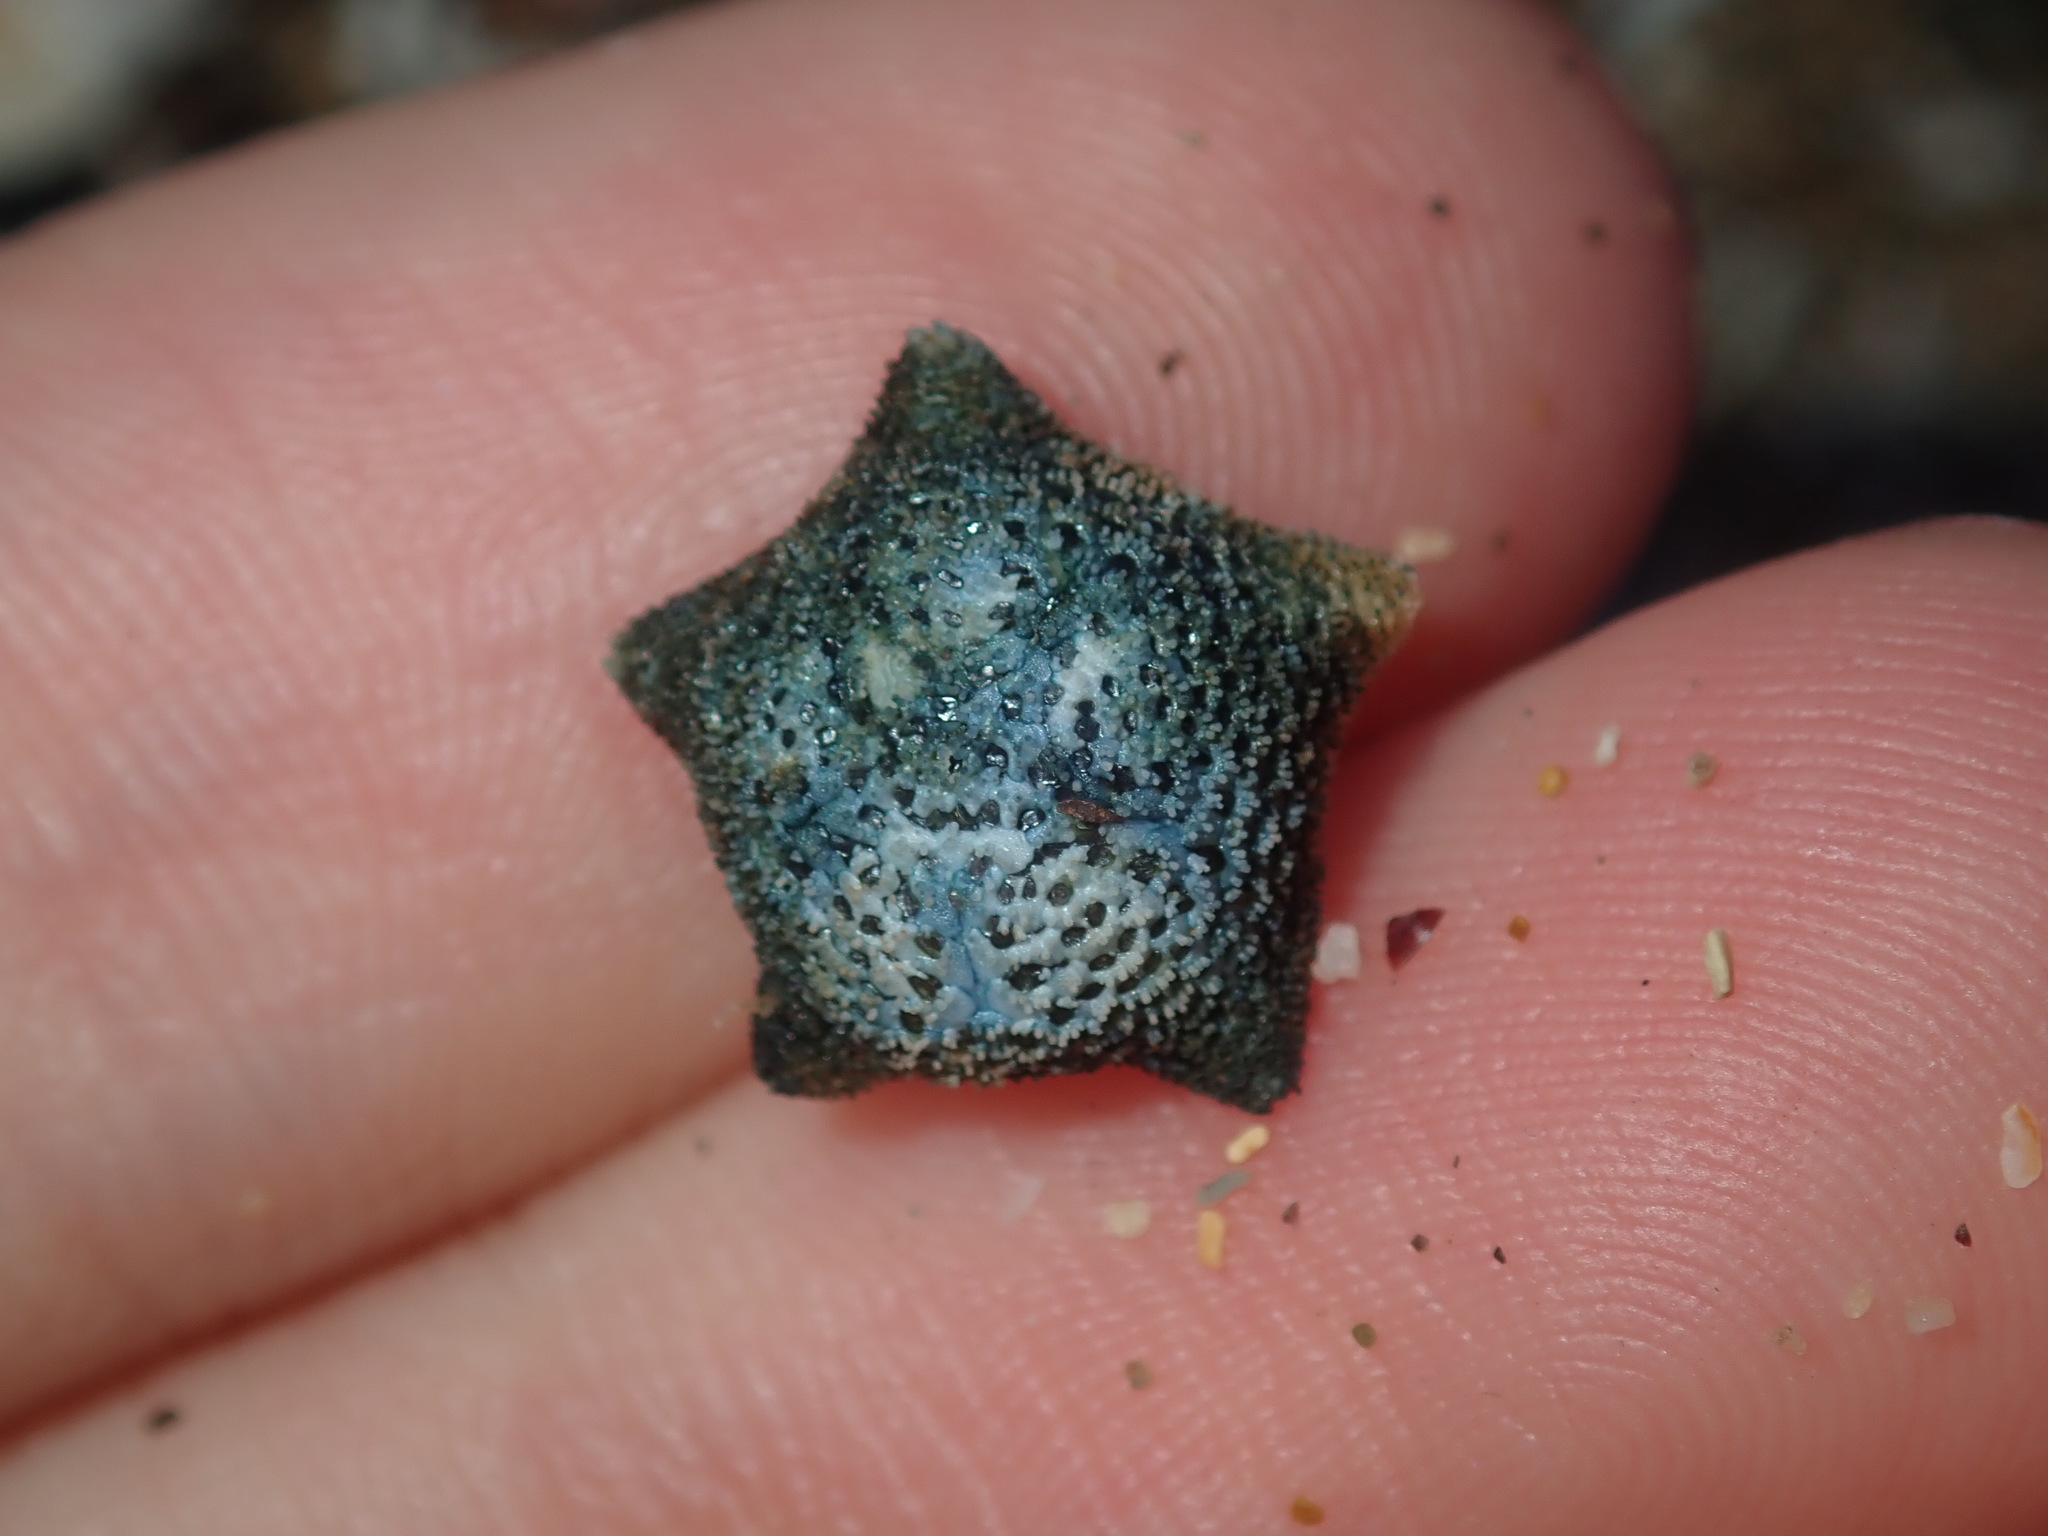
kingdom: Animalia
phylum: Echinodermata
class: Asteroidea
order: Valvatida
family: Asterinidae
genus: Parvulastra
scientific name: Parvulastra exigua
